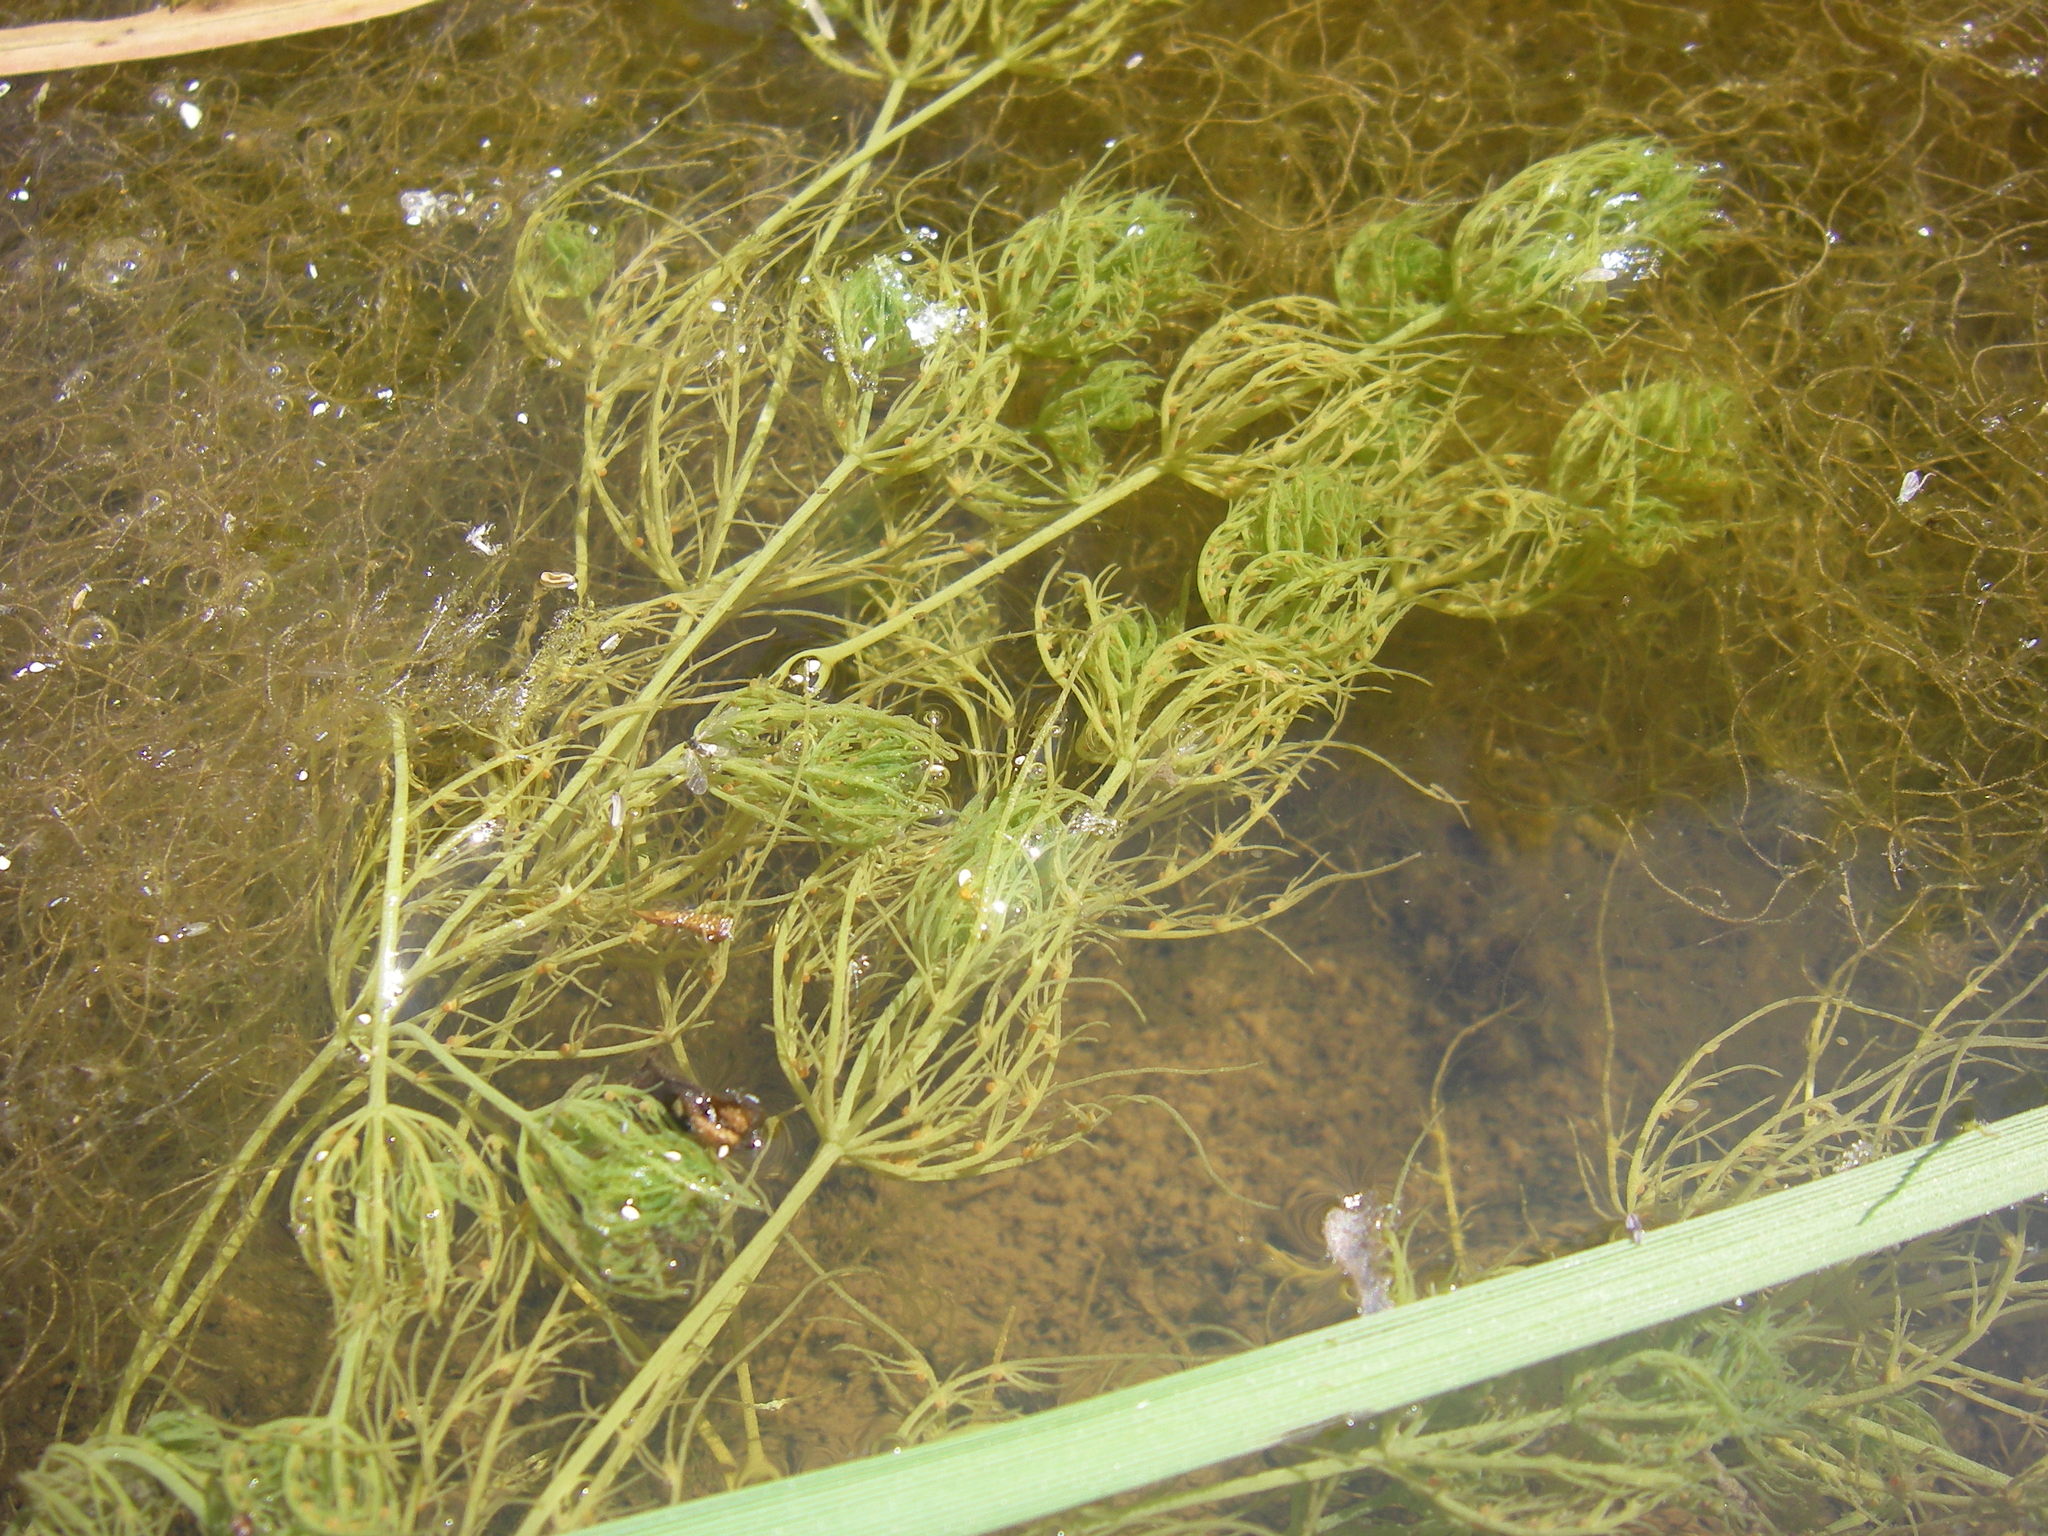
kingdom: Plantae
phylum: Charophyta
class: Charophyceae
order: Charales
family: Characeae
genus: Chara
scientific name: Chara vulgaris
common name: Common stonewort
